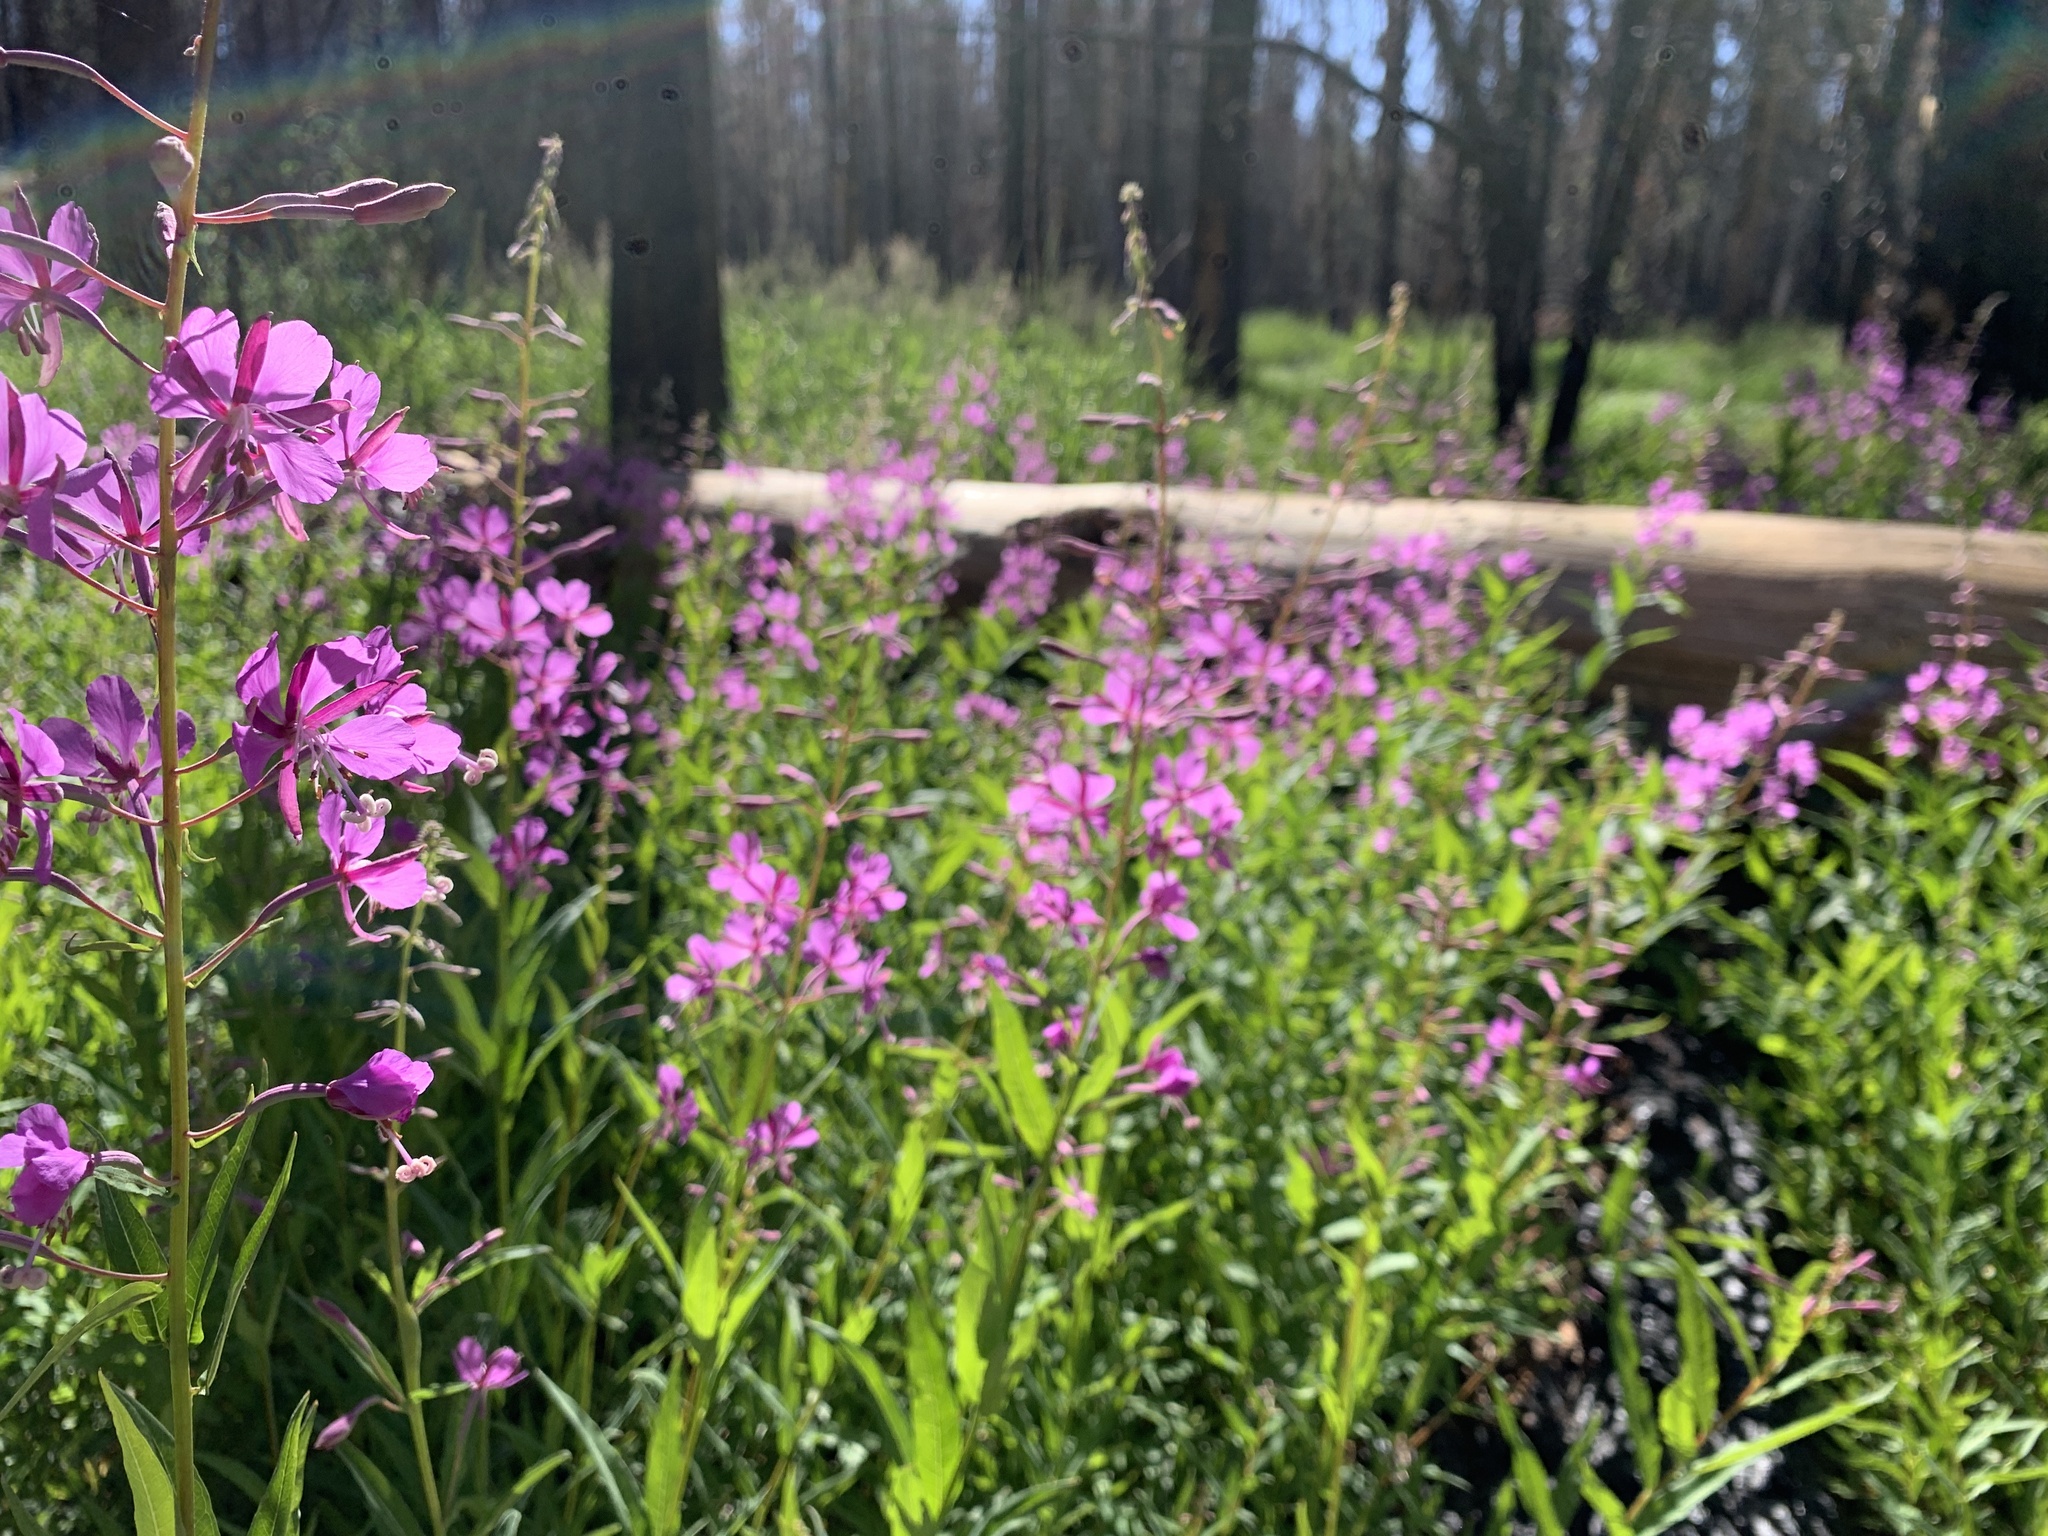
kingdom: Plantae
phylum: Tracheophyta
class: Magnoliopsida
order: Myrtales
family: Onagraceae
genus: Chamaenerion
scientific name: Chamaenerion angustifolium
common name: Fireweed
